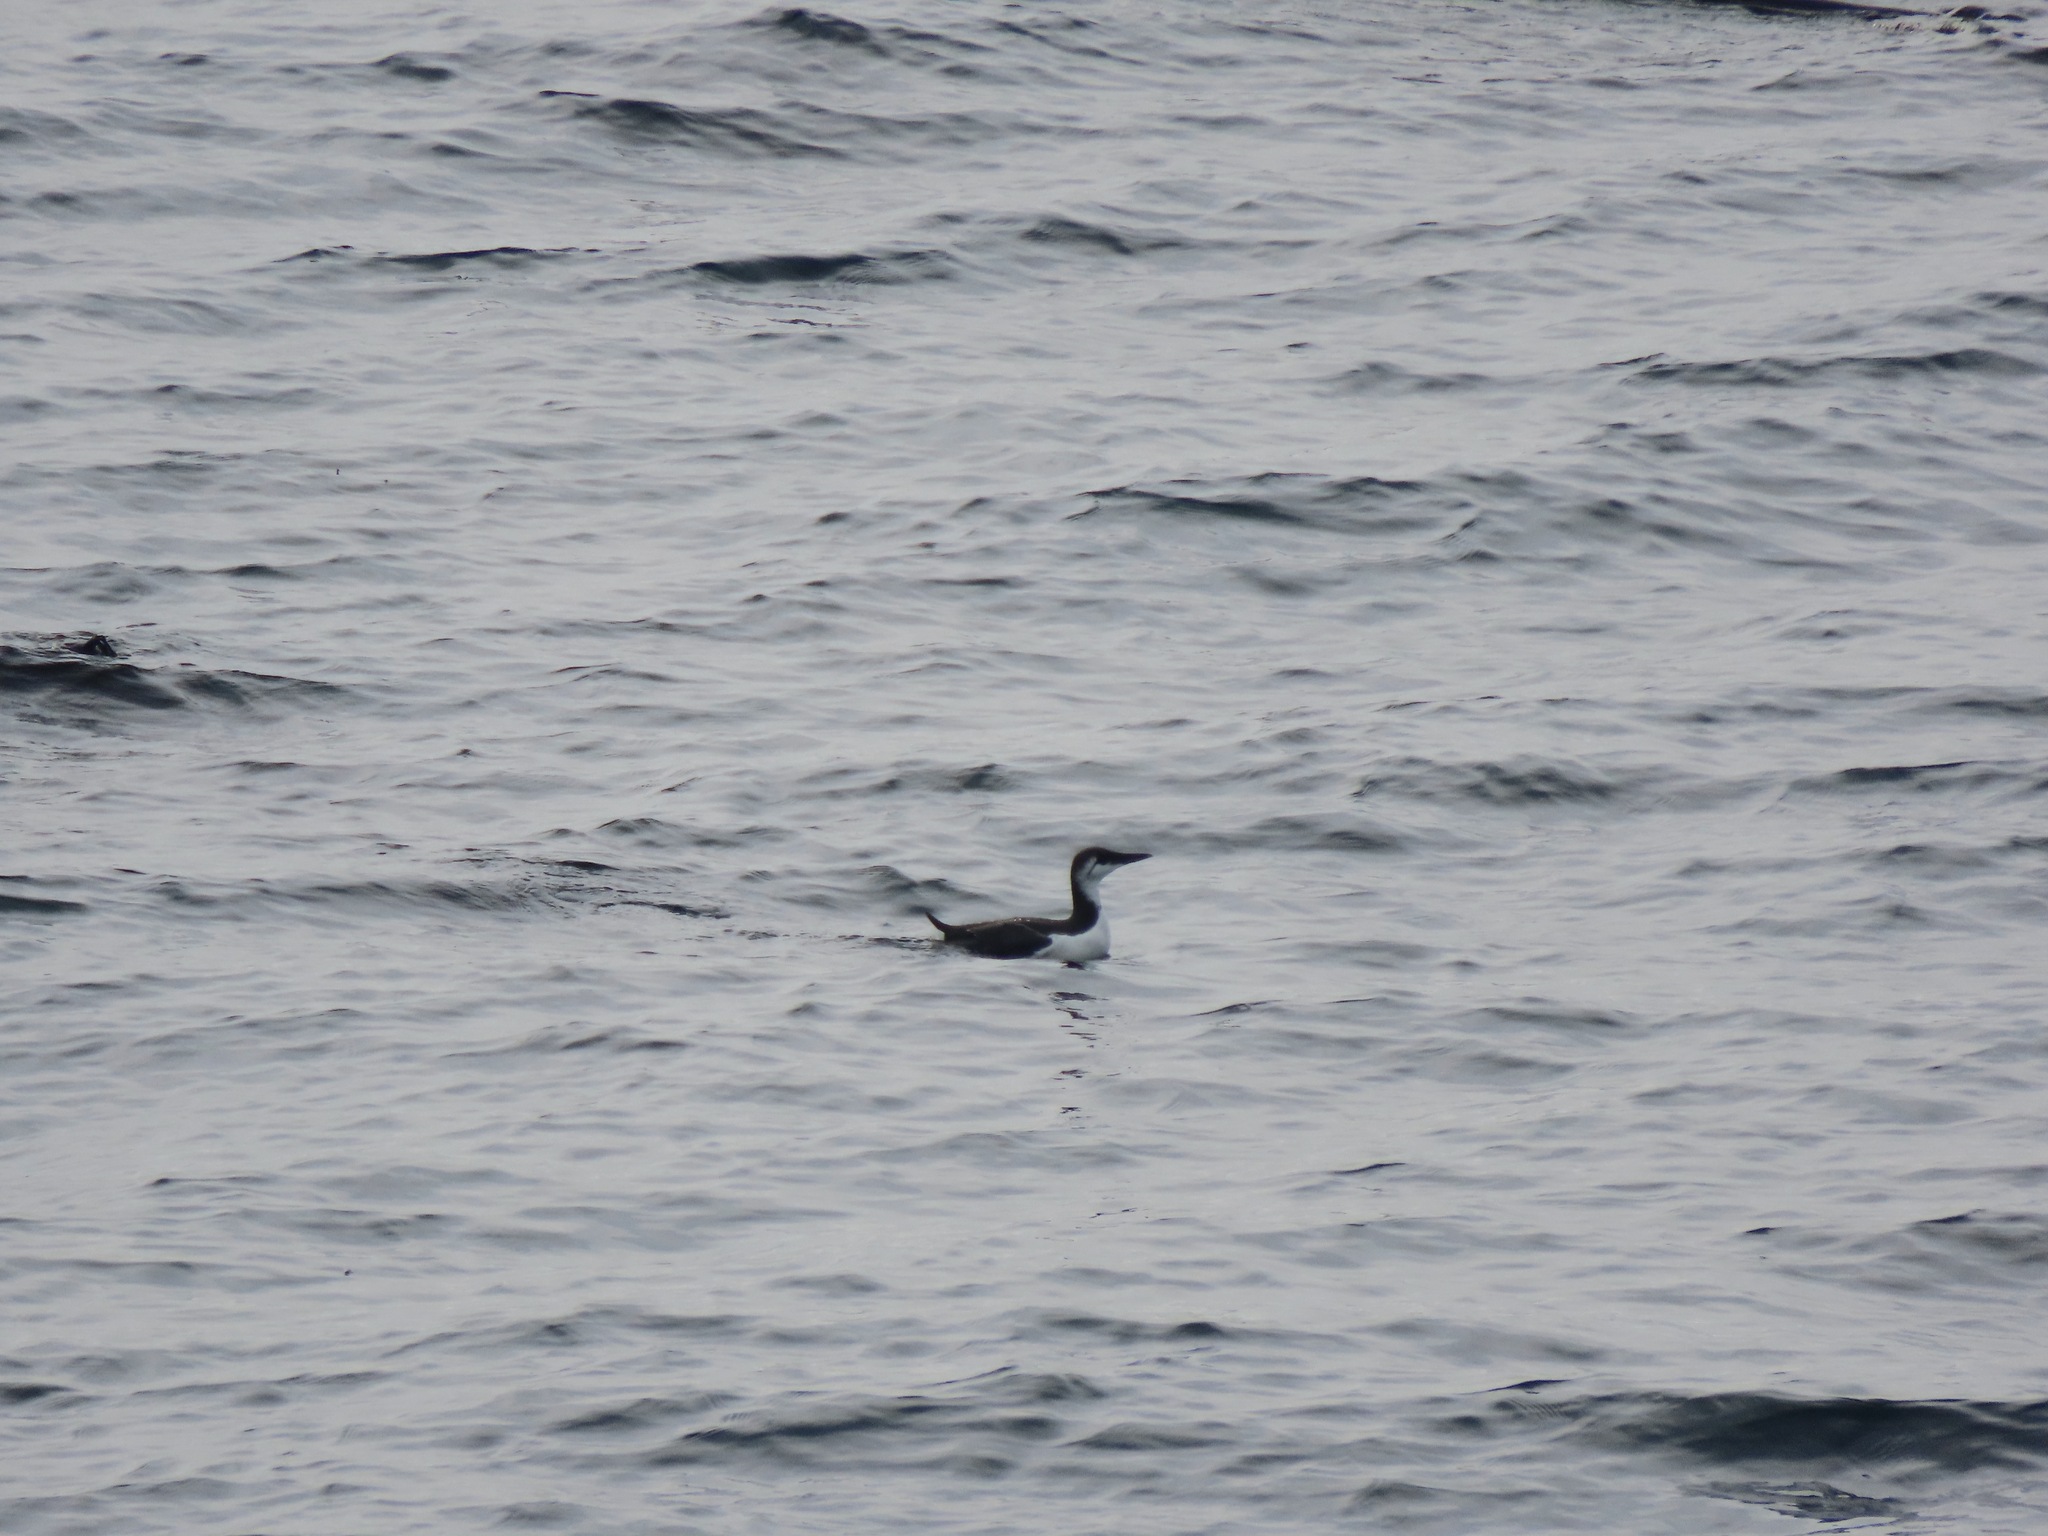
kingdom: Animalia
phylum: Chordata
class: Aves
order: Charadriiformes
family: Alcidae
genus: Uria
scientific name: Uria aalge
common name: Common murre
